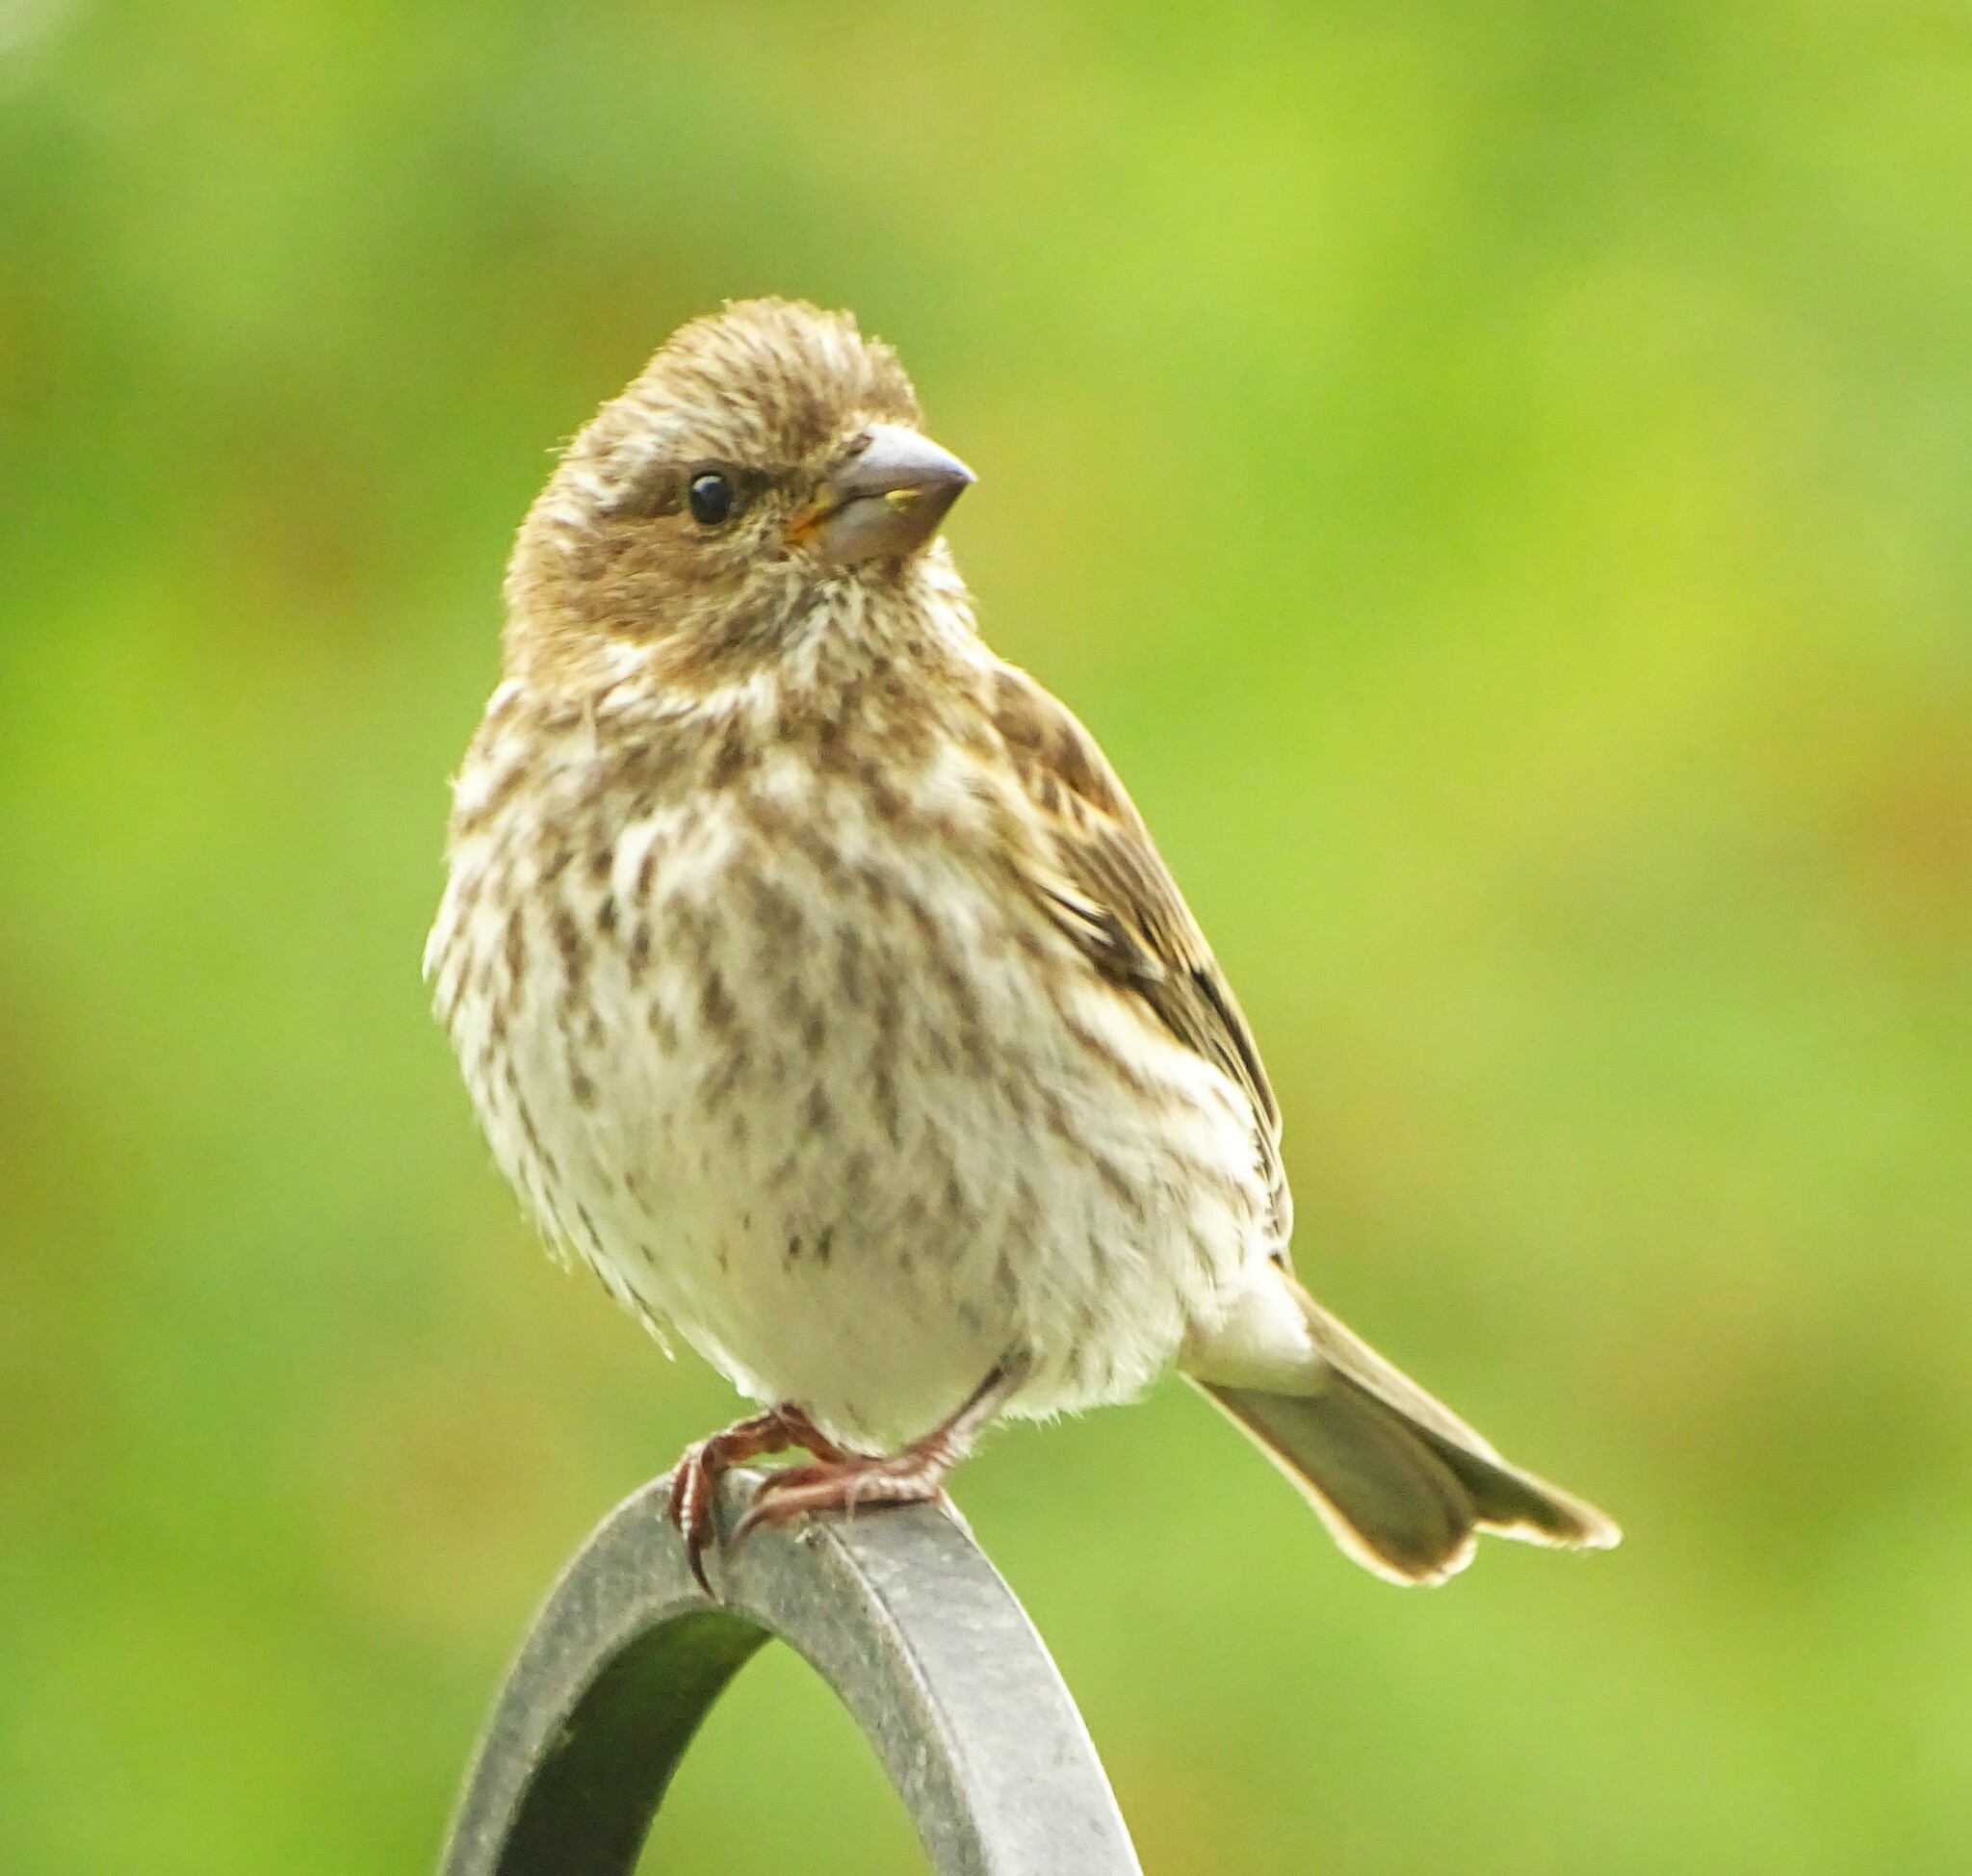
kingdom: Animalia
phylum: Chordata
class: Aves
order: Passeriformes
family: Fringillidae
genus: Haemorhous
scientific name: Haemorhous purpureus
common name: Purple finch
